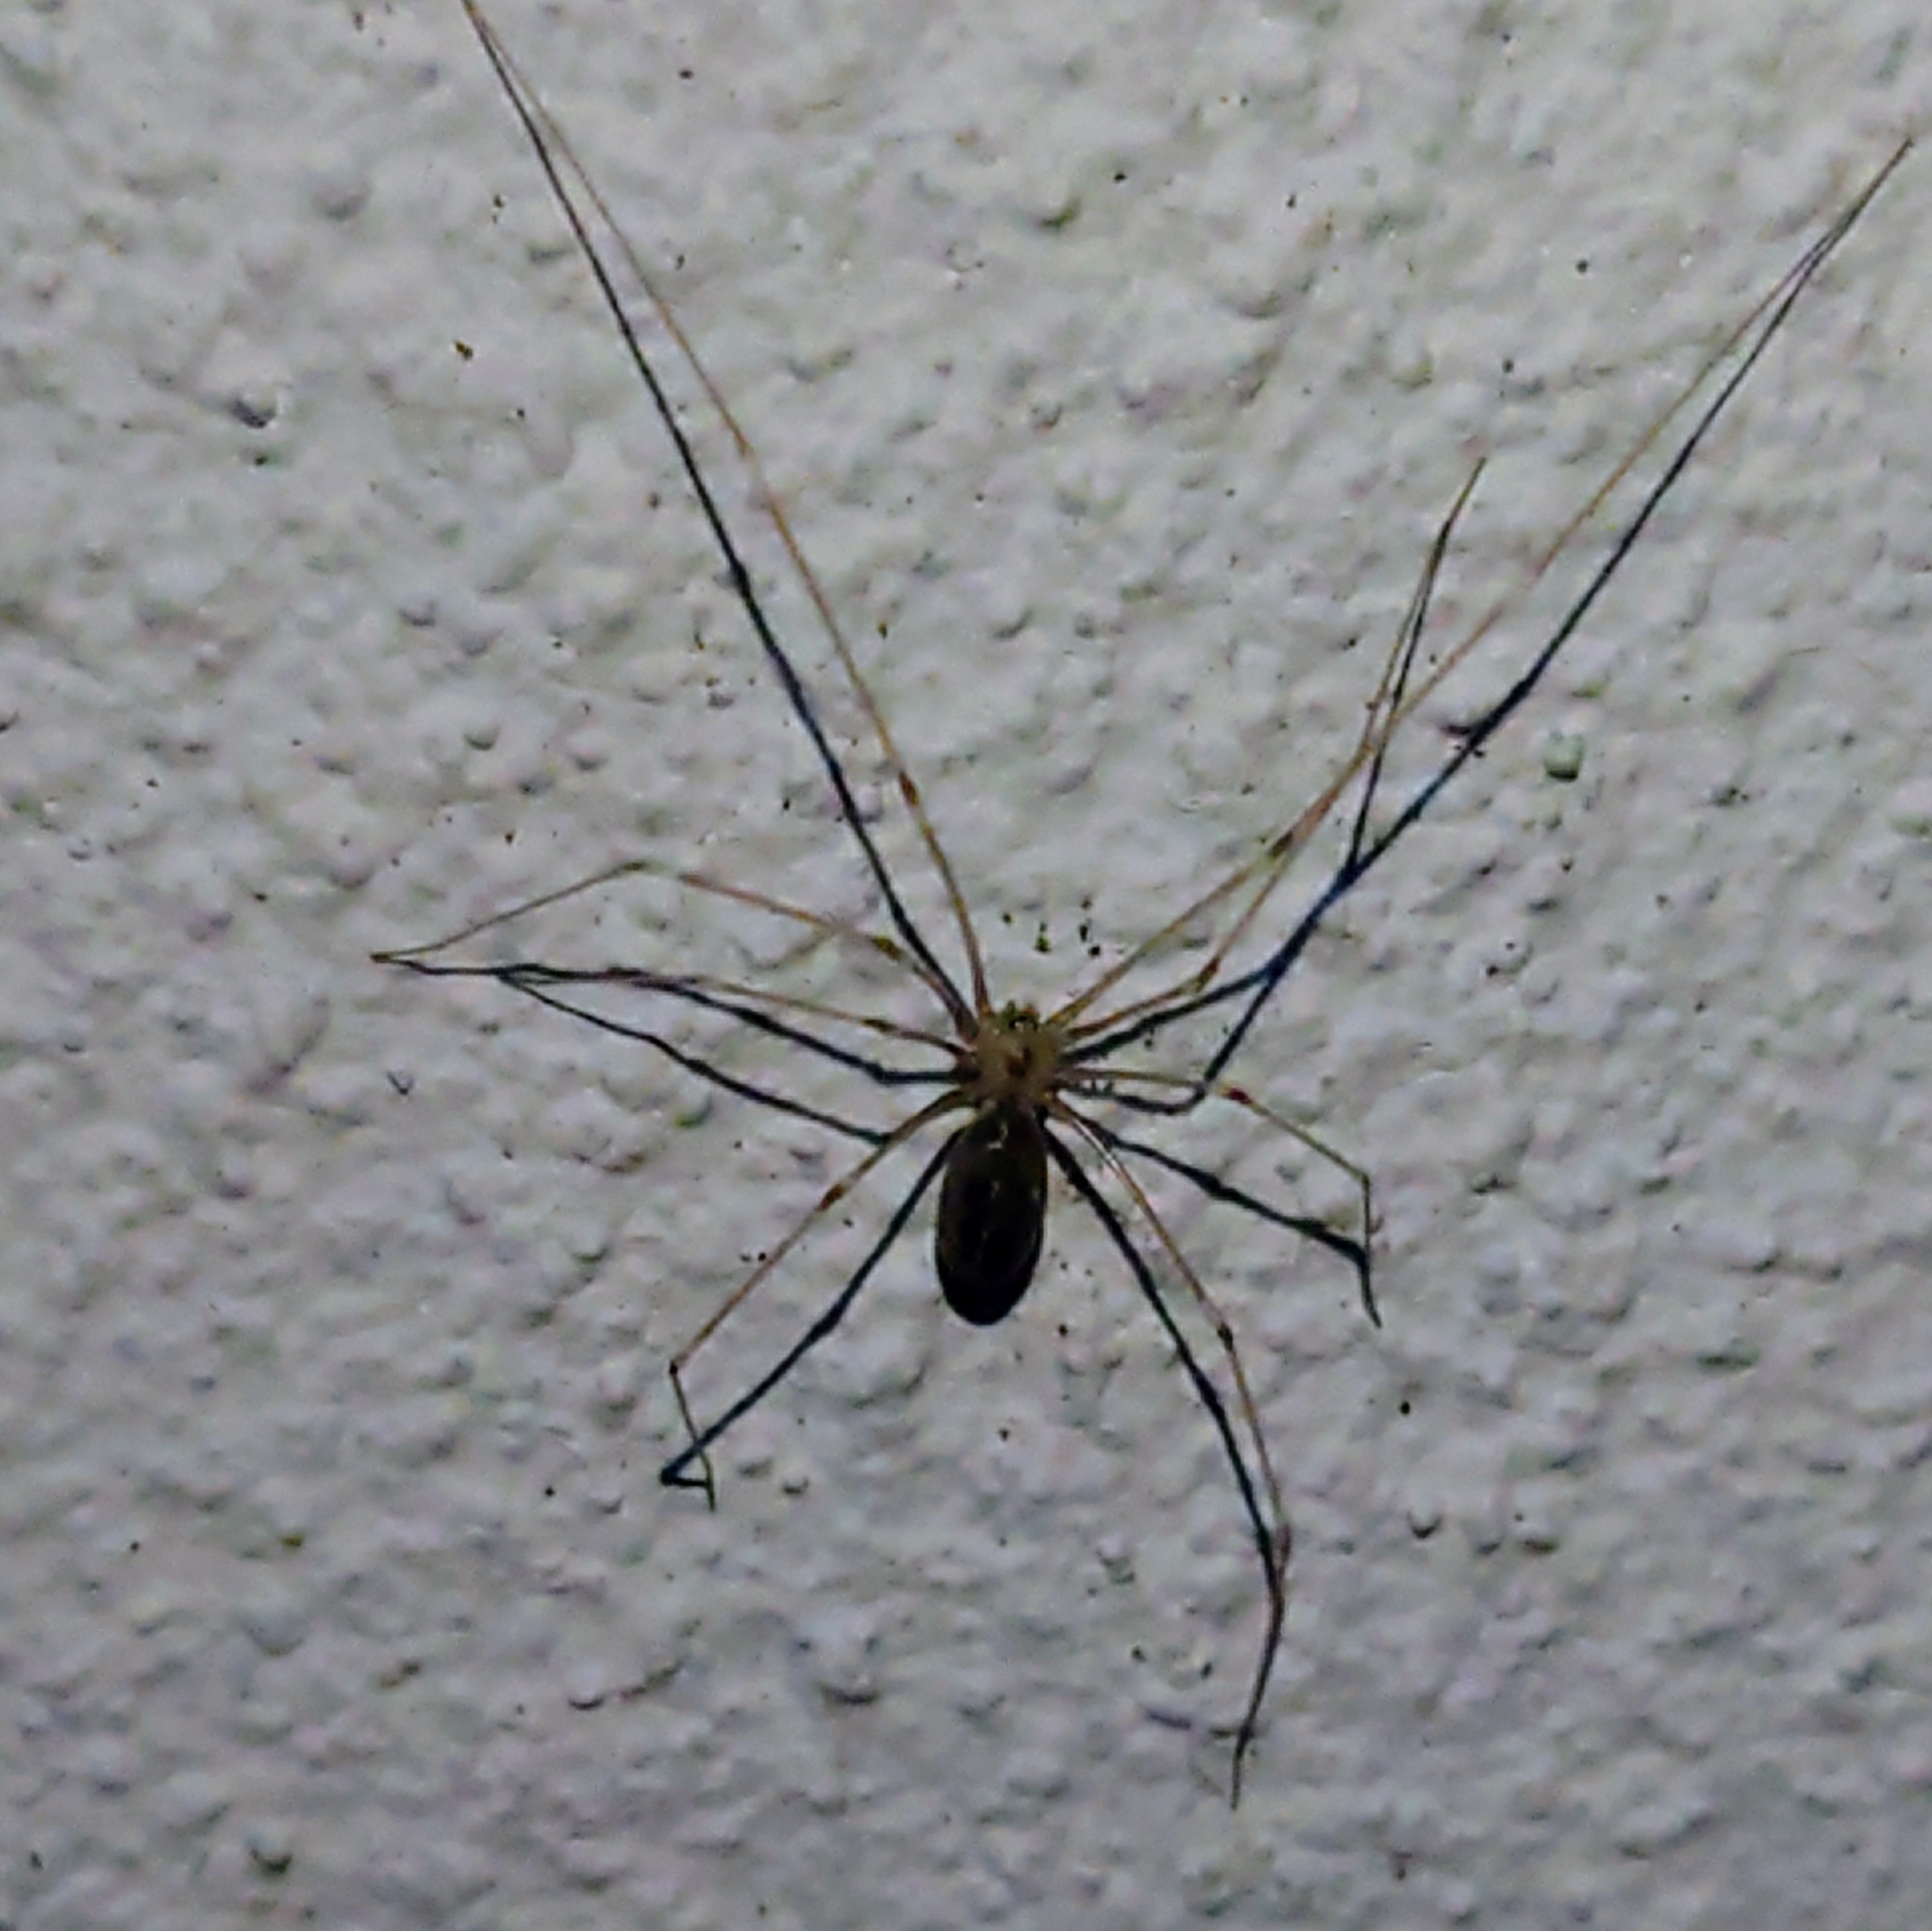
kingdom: Animalia
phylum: Arthropoda
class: Arachnida
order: Araneae
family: Pholcidae
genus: Pholcus
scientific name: Pholcus phalangioides
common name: Longbodied cellar spider
